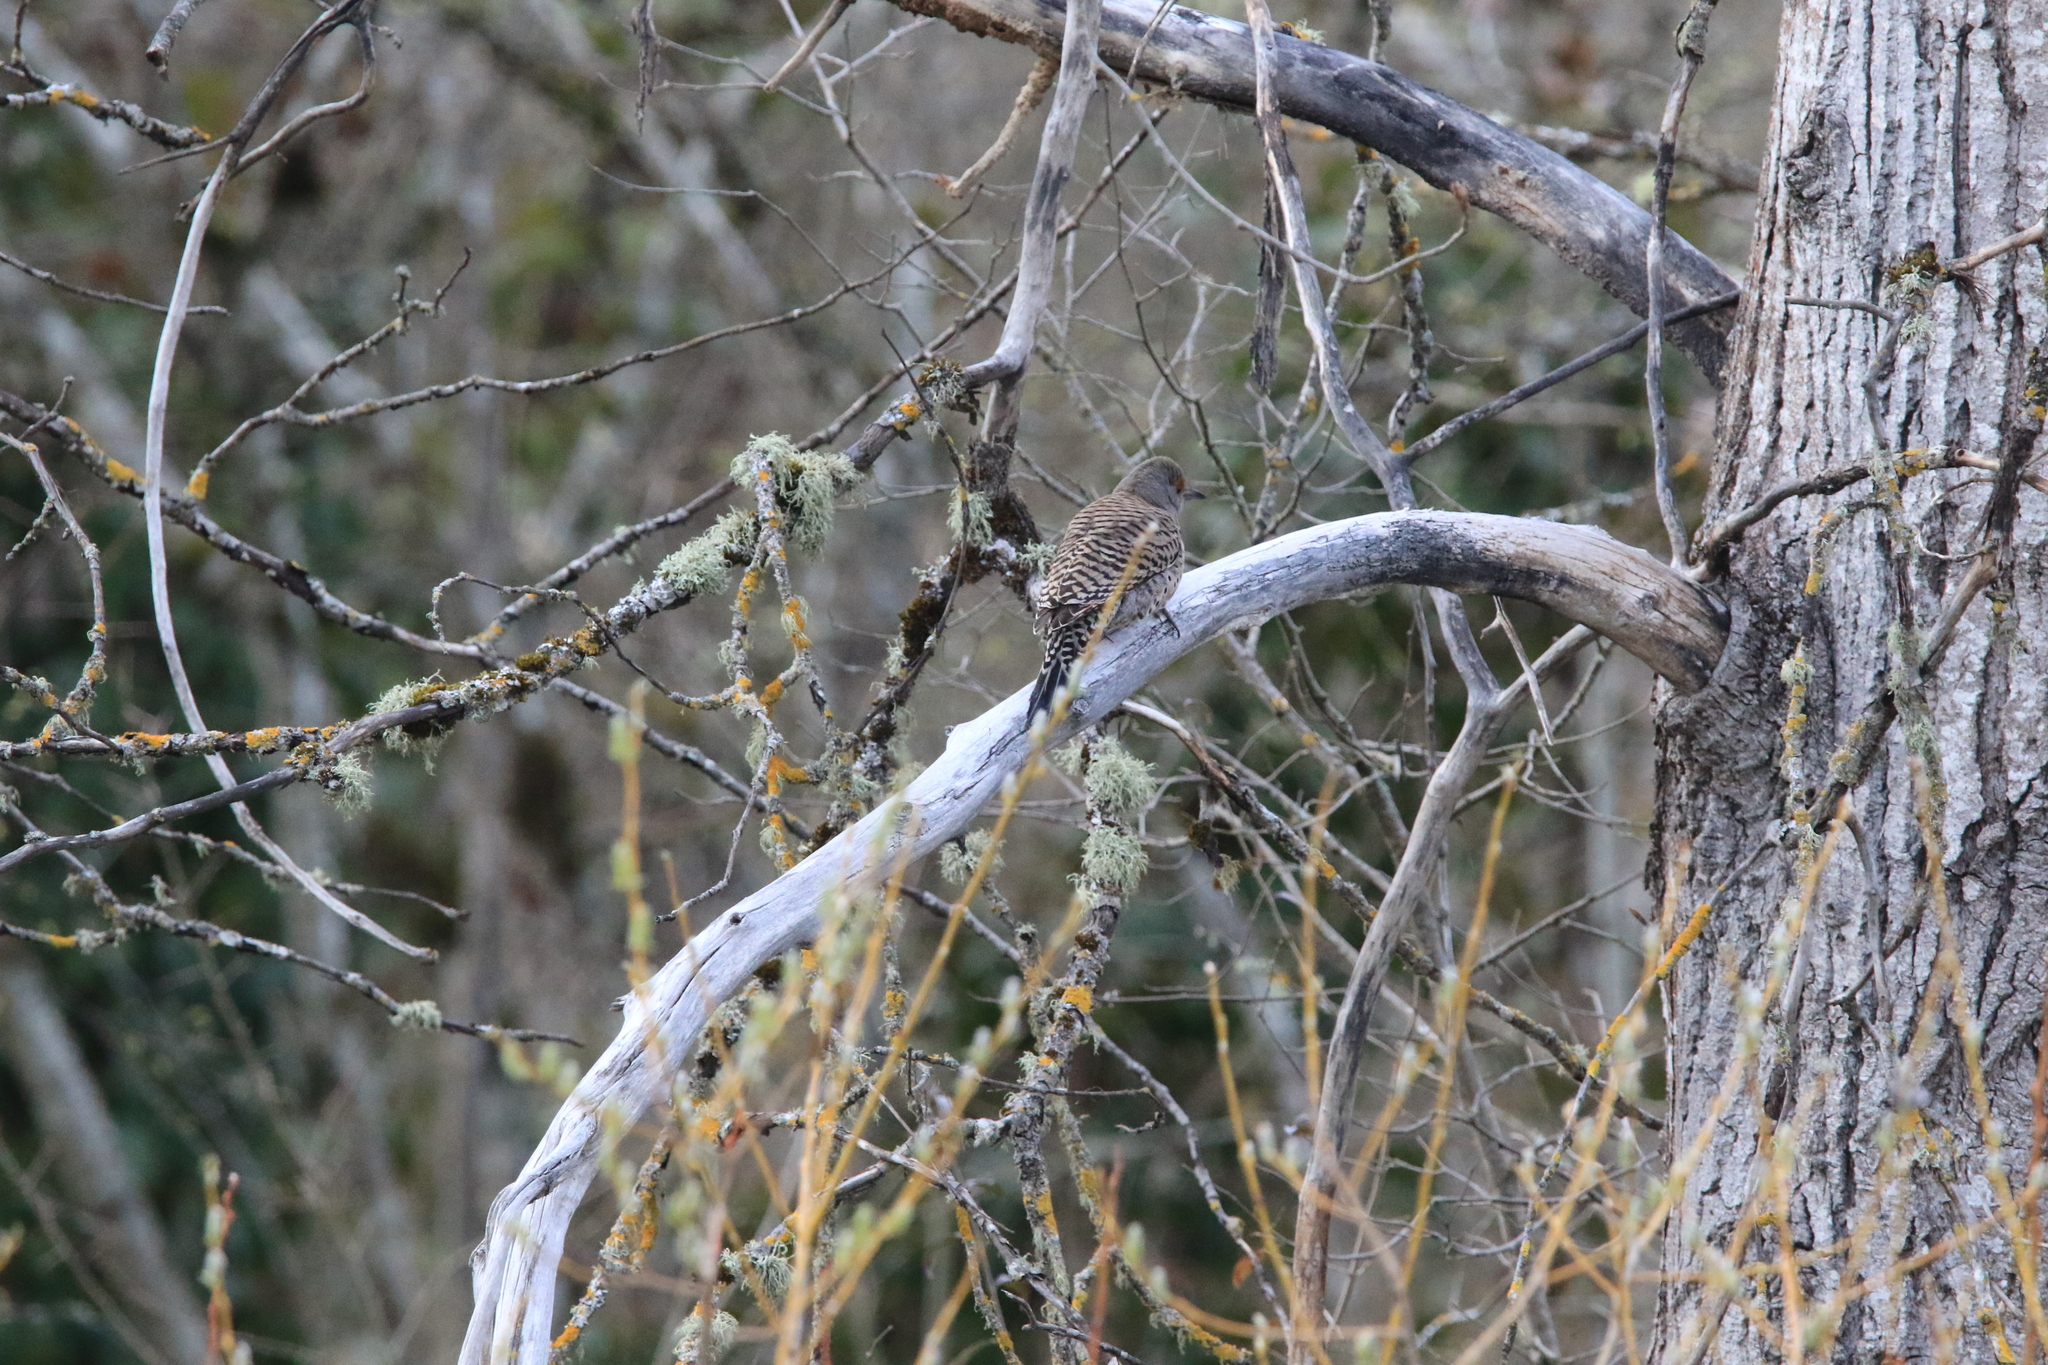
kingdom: Animalia
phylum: Chordata
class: Aves
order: Piciformes
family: Picidae
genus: Colaptes
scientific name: Colaptes auratus
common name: Northern flicker
